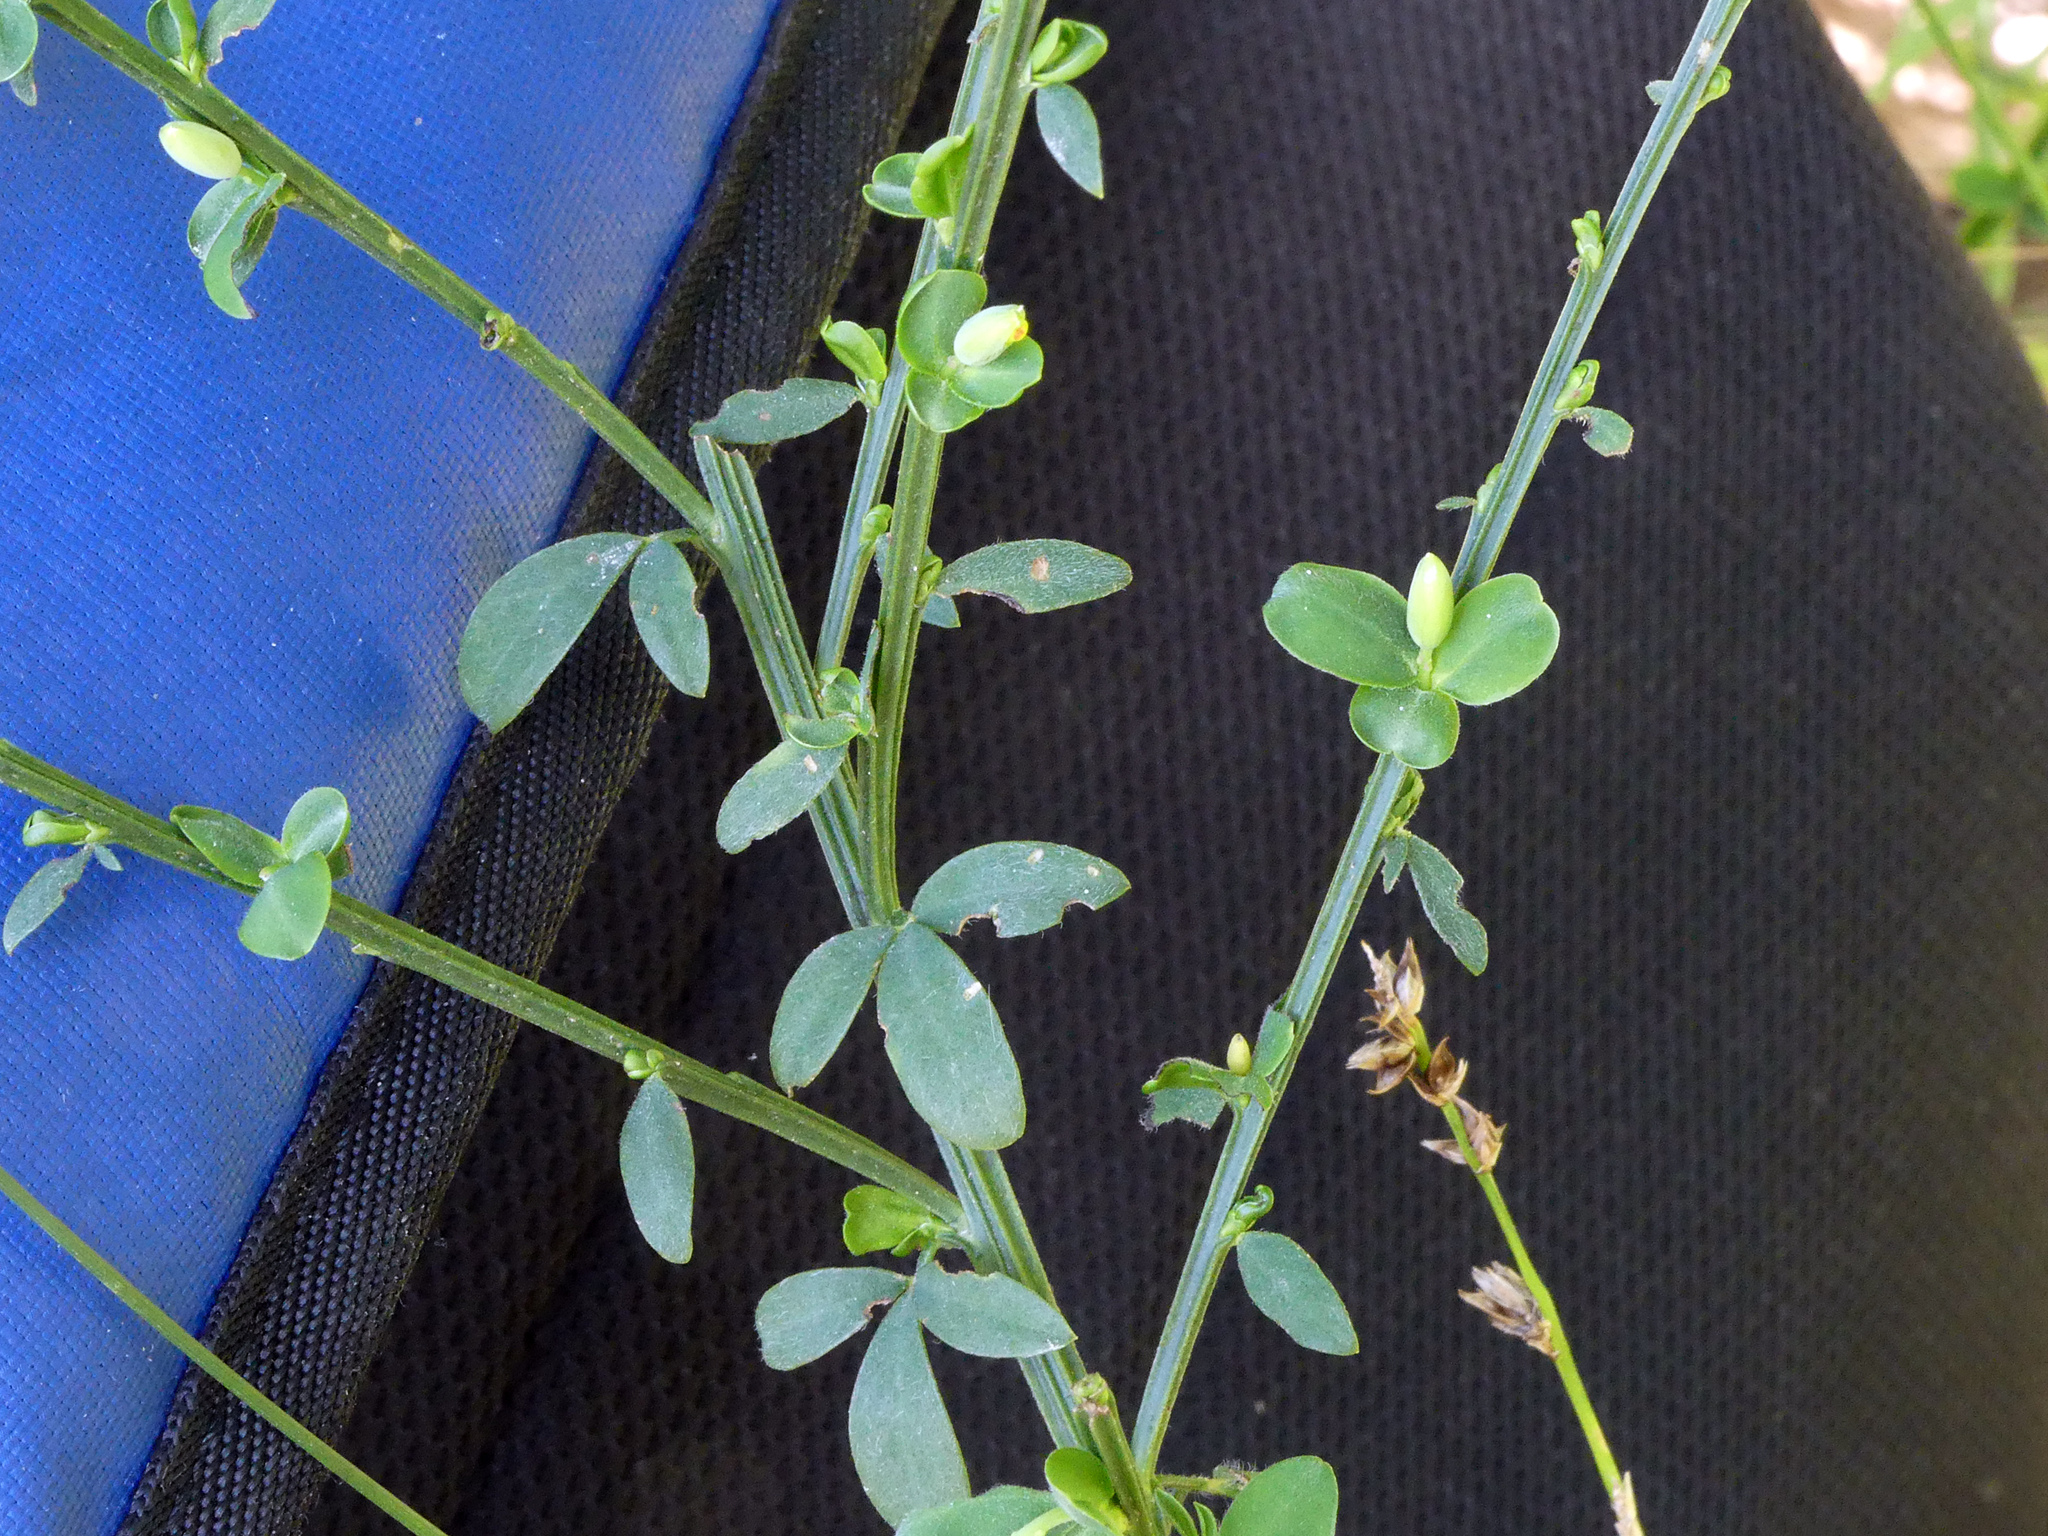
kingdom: Plantae
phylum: Tracheophyta
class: Magnoliopsida
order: Fabales
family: Fabaceae
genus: Cytisus
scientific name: Cytisus scoparius
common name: Scotch broom
